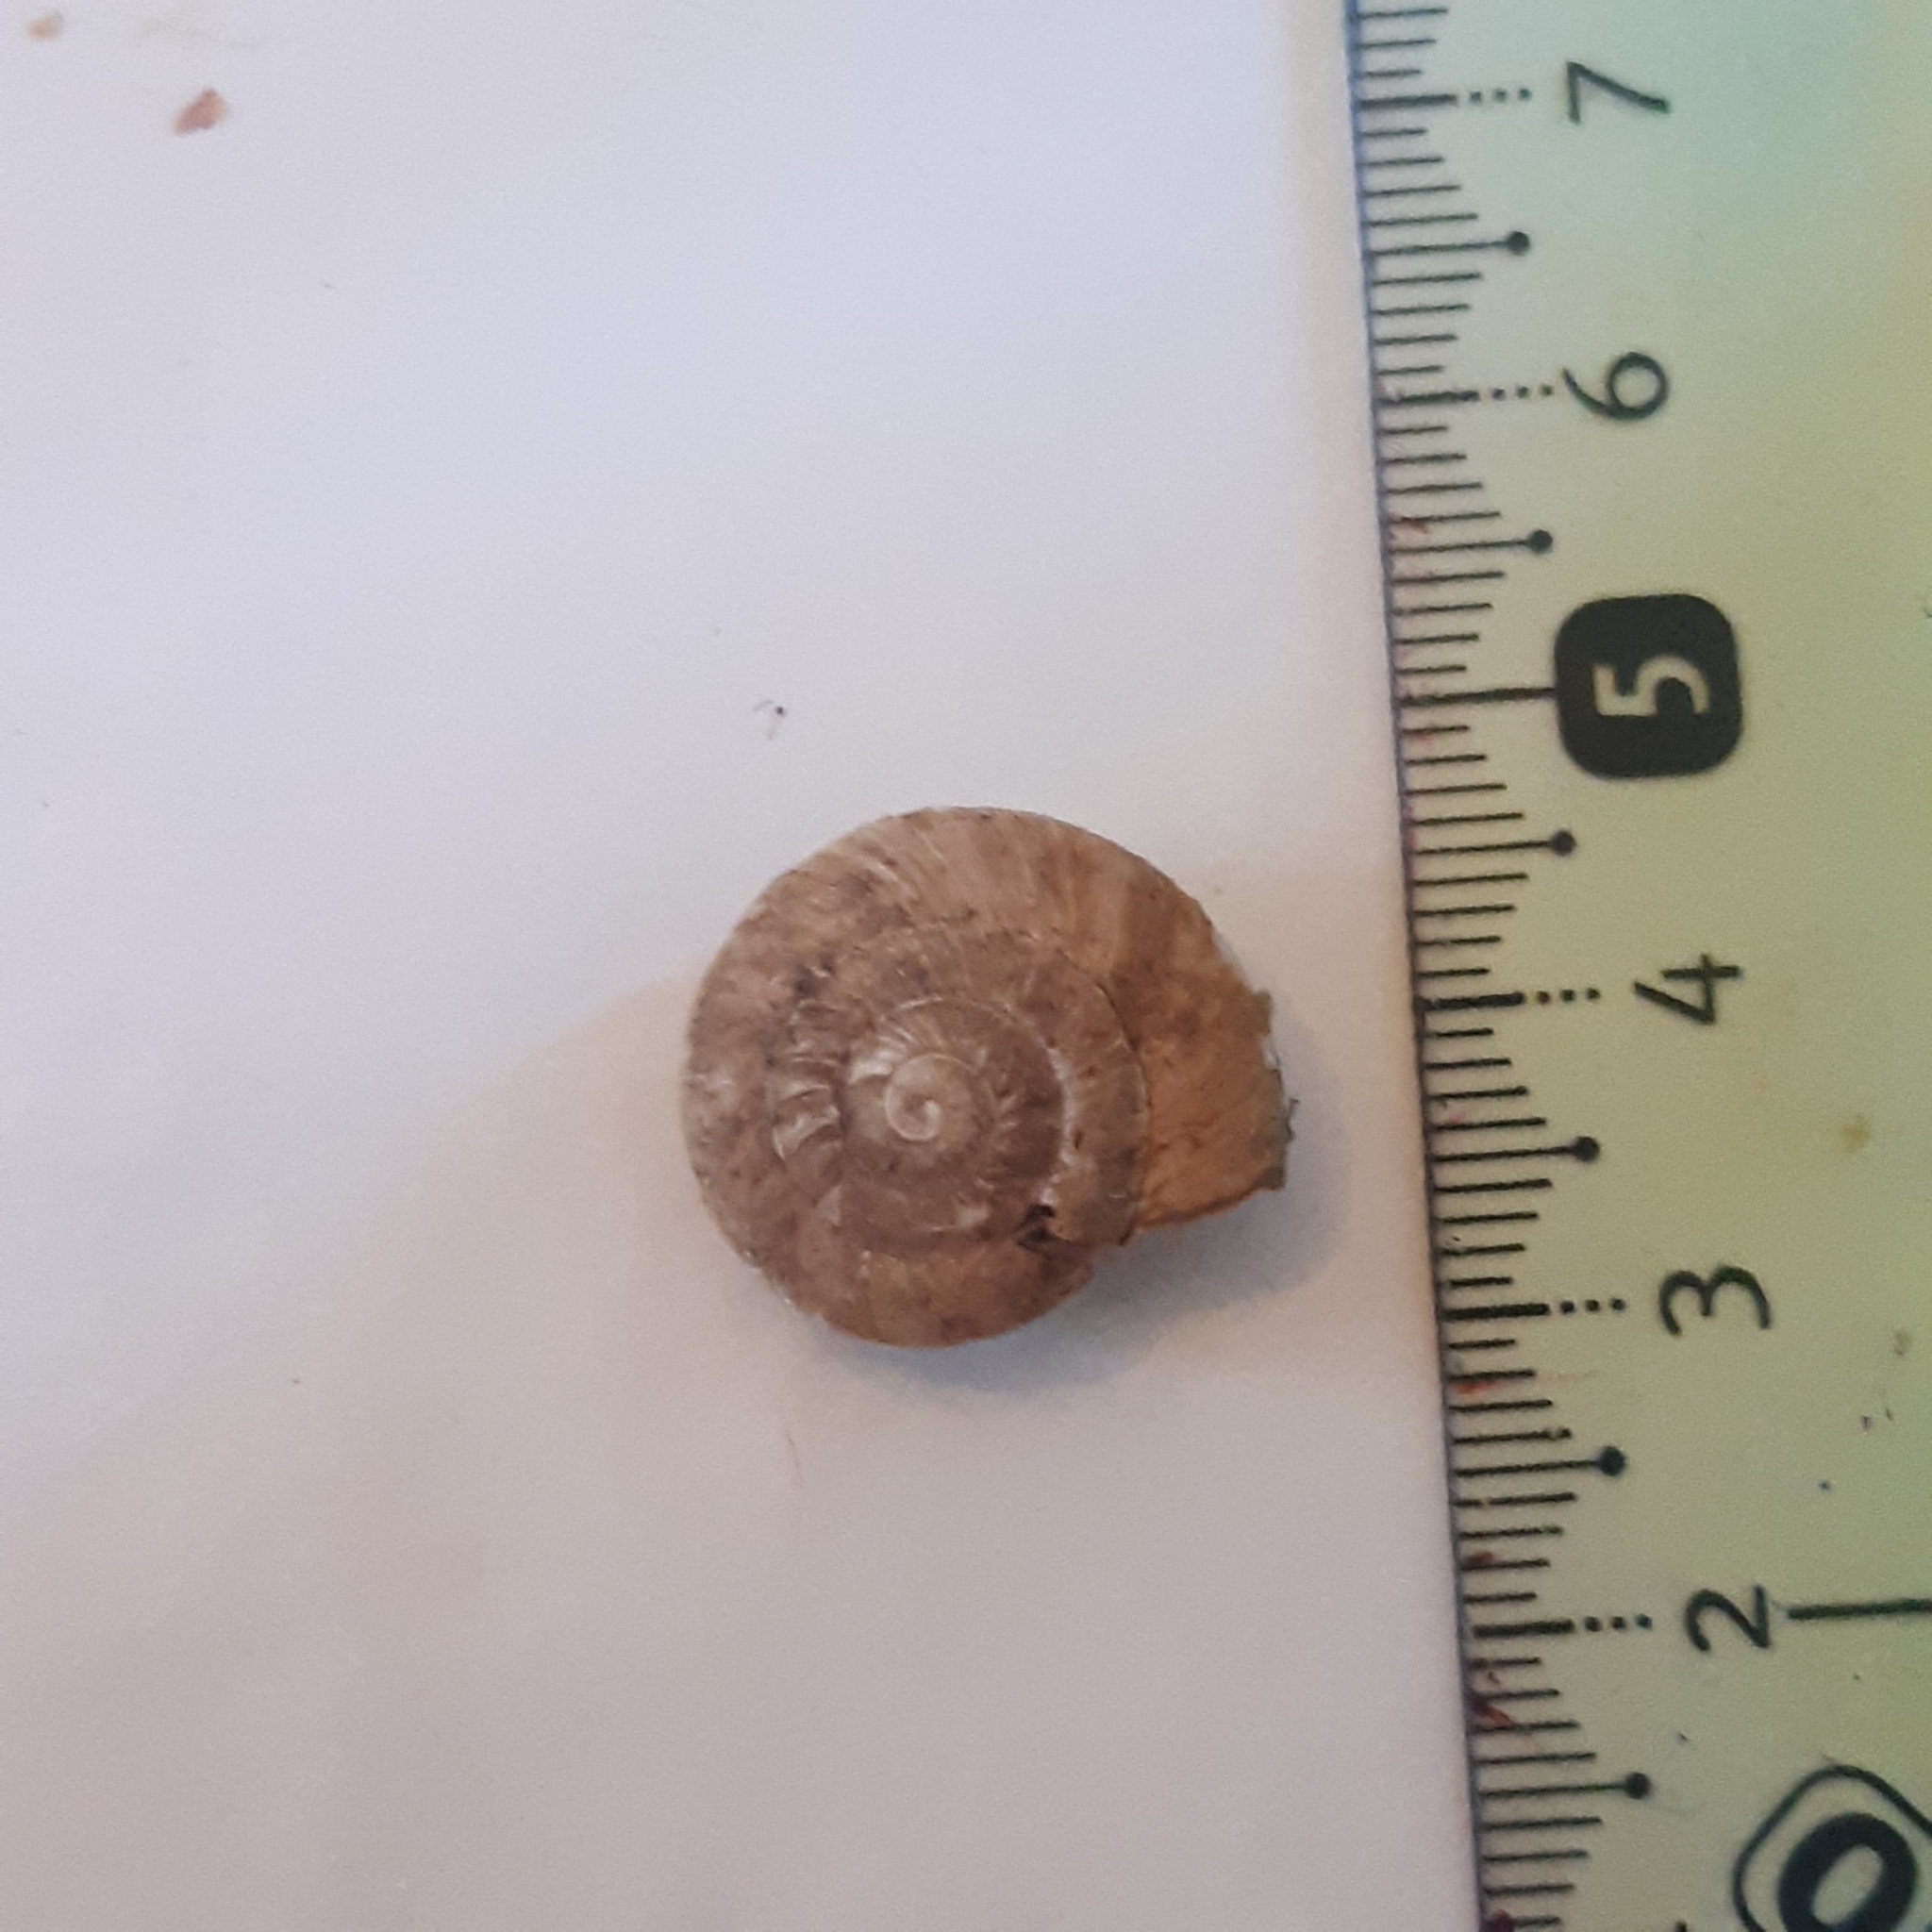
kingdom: Animalia
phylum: Mollusca
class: Gastropoda
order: Stylommatophora
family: Zonitidae
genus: Zonites
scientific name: Zonites algirus
